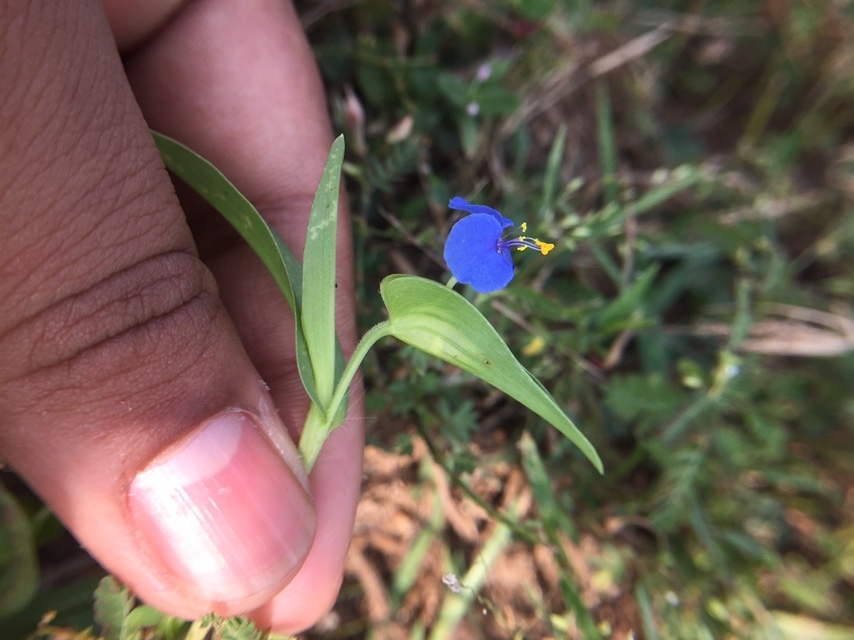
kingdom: Plantae
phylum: Tracheophyta
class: Liliopsida
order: Commelinales
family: Commelinaceae
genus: Commelina
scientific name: Commelina attenuata
